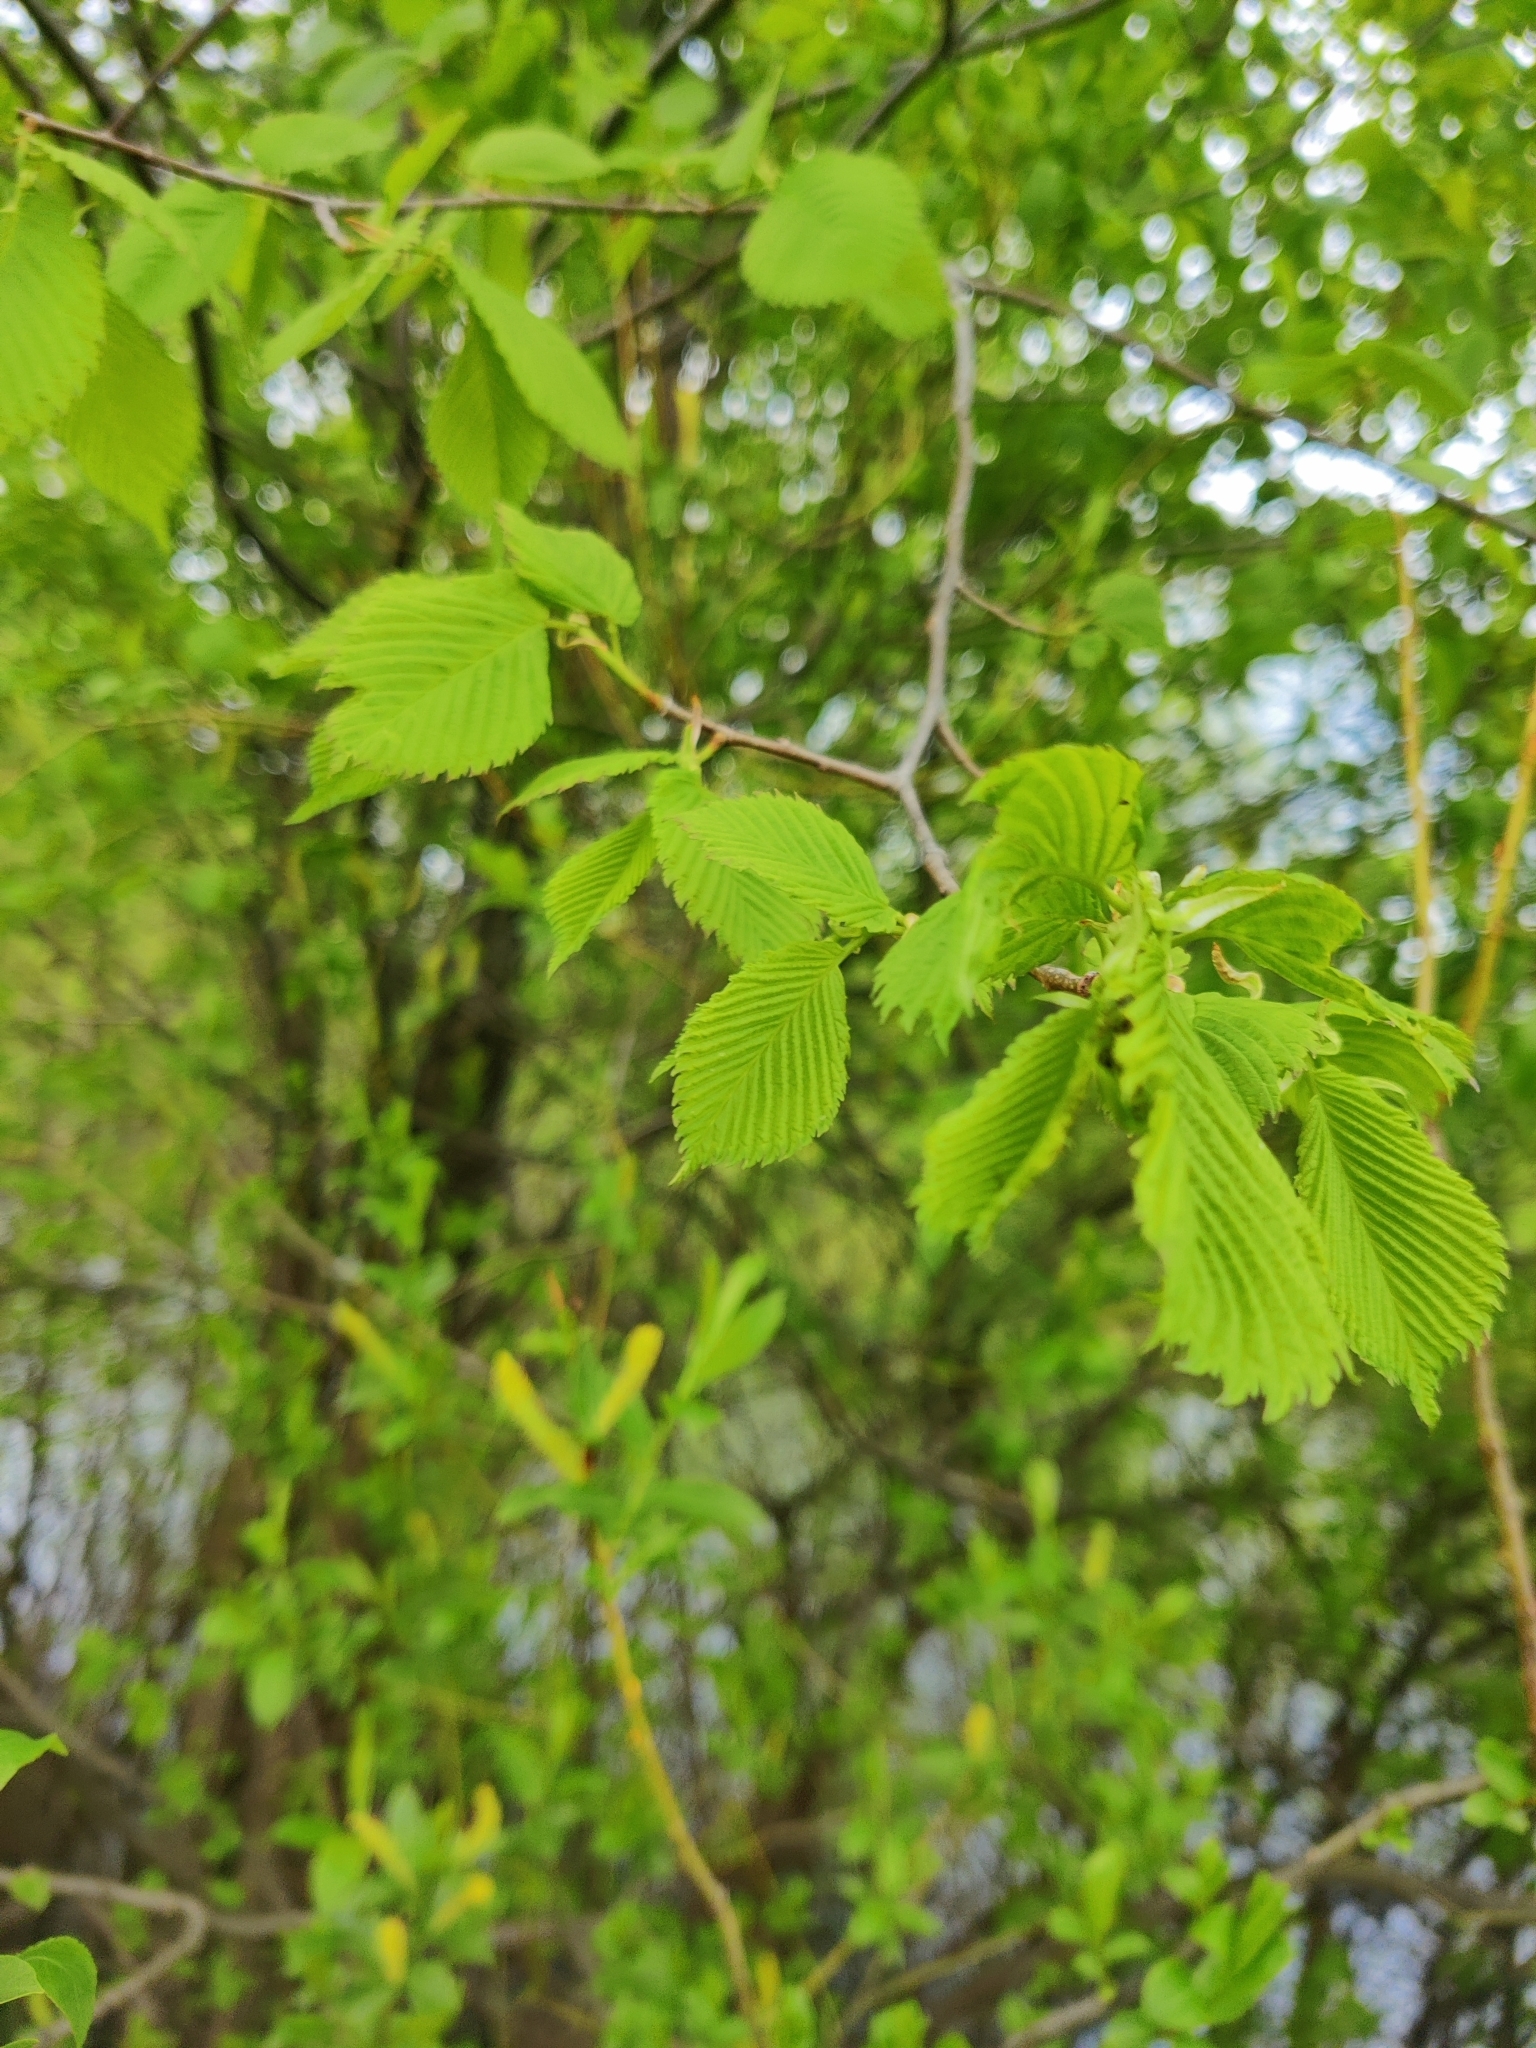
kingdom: Plantae
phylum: Tracheophyta
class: Magnoliopsida
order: Rosales
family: Ulmaceae
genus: Ulmus
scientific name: Ulmus laevis
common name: European white-elm
